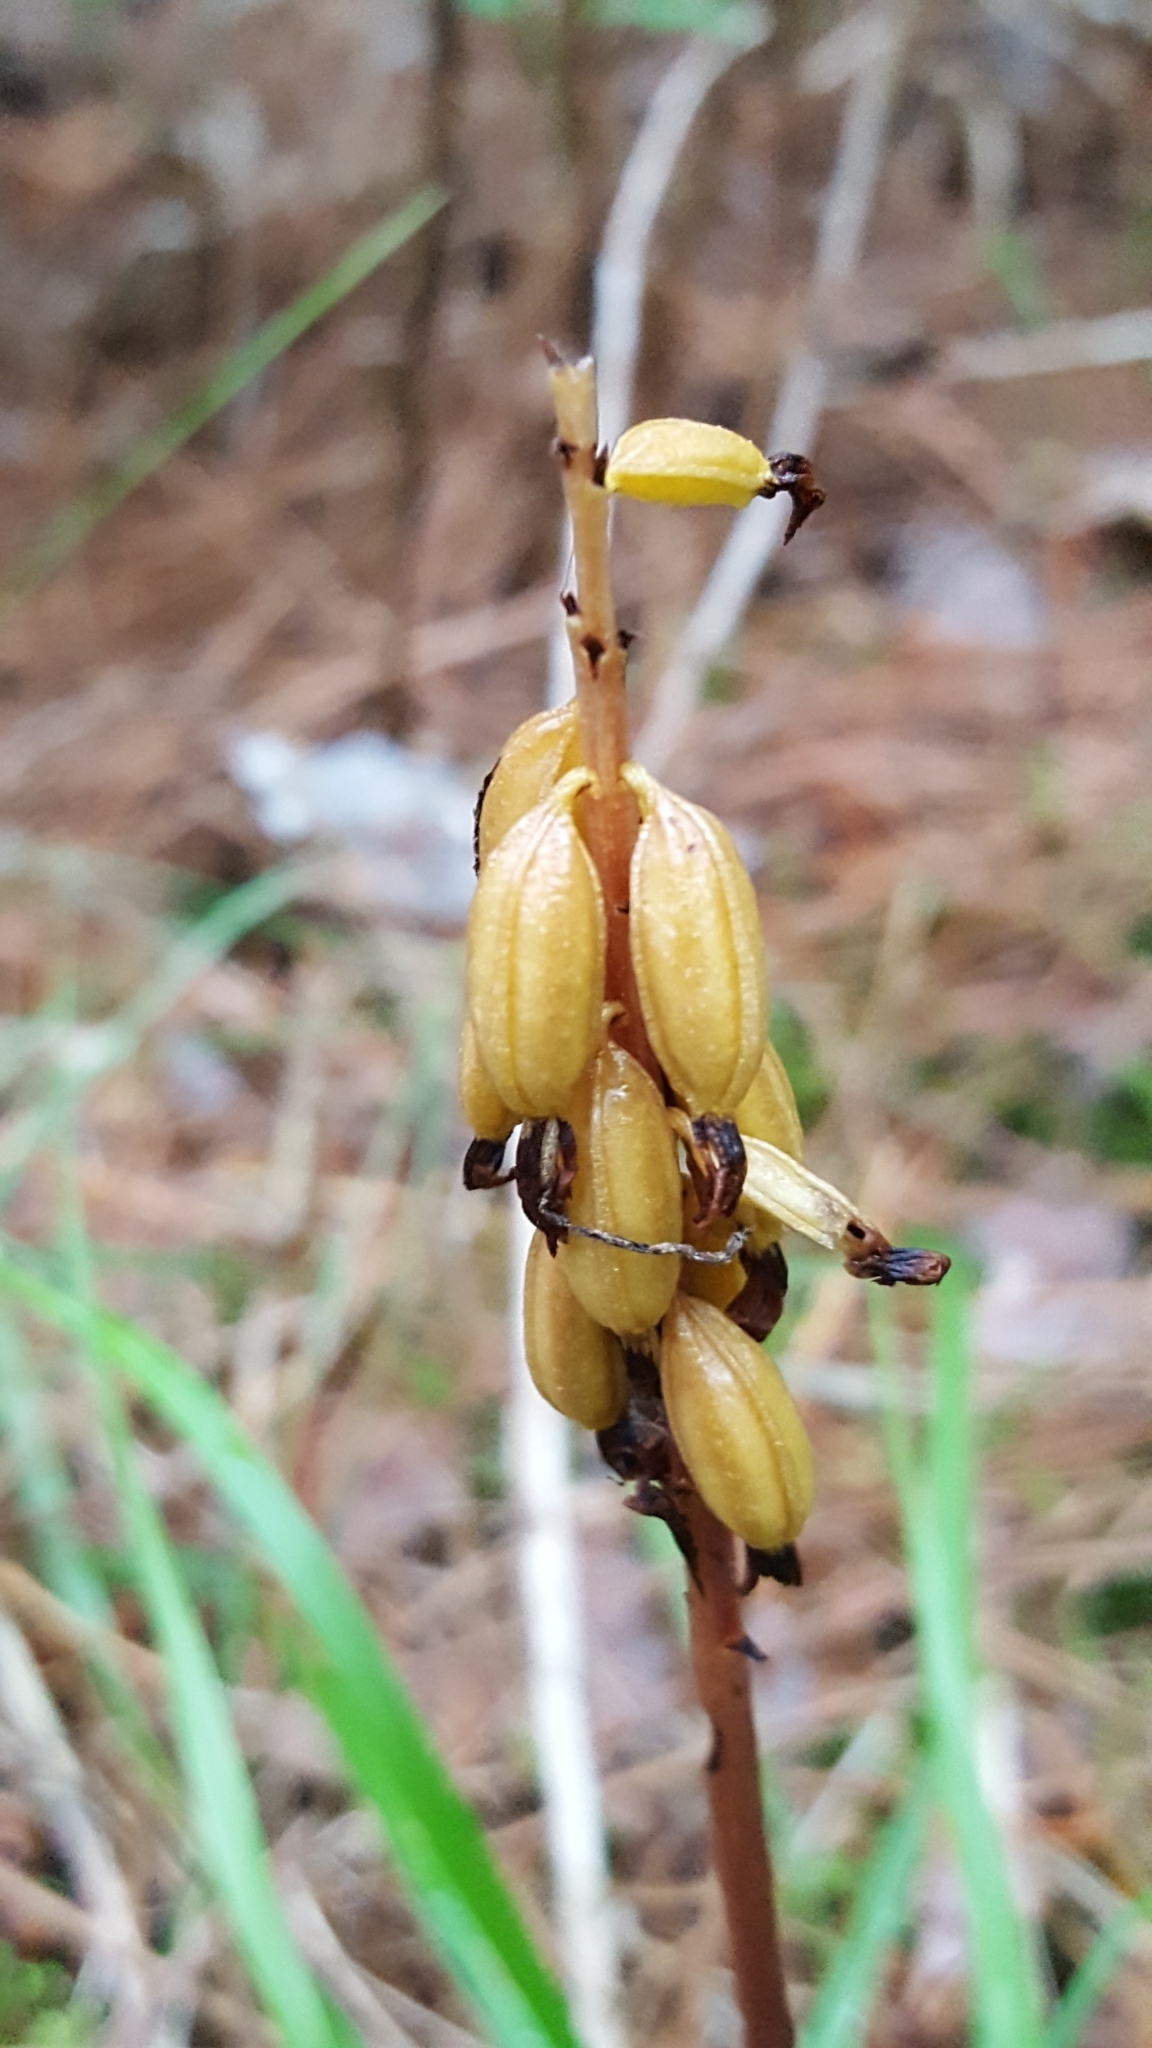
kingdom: Plantae
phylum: Tracheophyta
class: Liliopsida
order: Asparagales
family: Orchidaceae
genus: Corallorhiza
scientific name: Corallorhiza maculata
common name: Spotted coralroot
